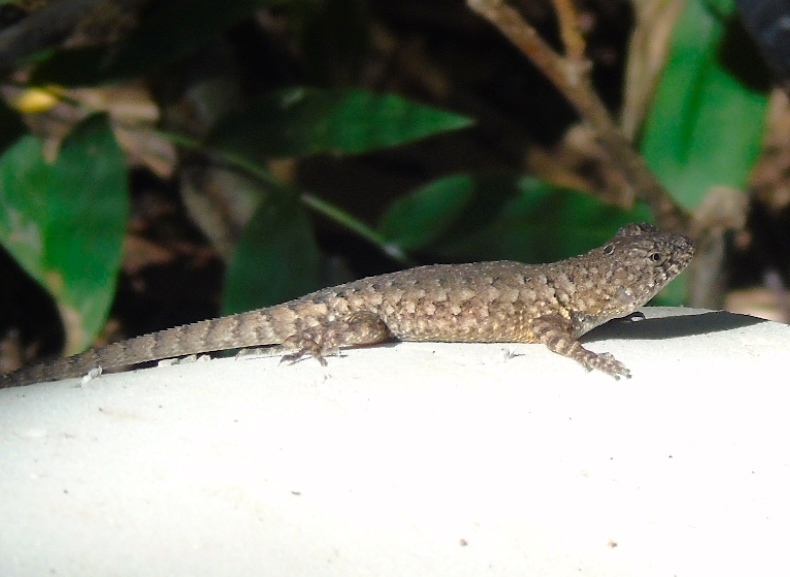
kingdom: Animalia
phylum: Chordata
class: Squamata
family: Phrynosomatidae
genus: Sceloporus
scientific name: Sceloporus nelsoni
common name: Nelson's spiny lizard
